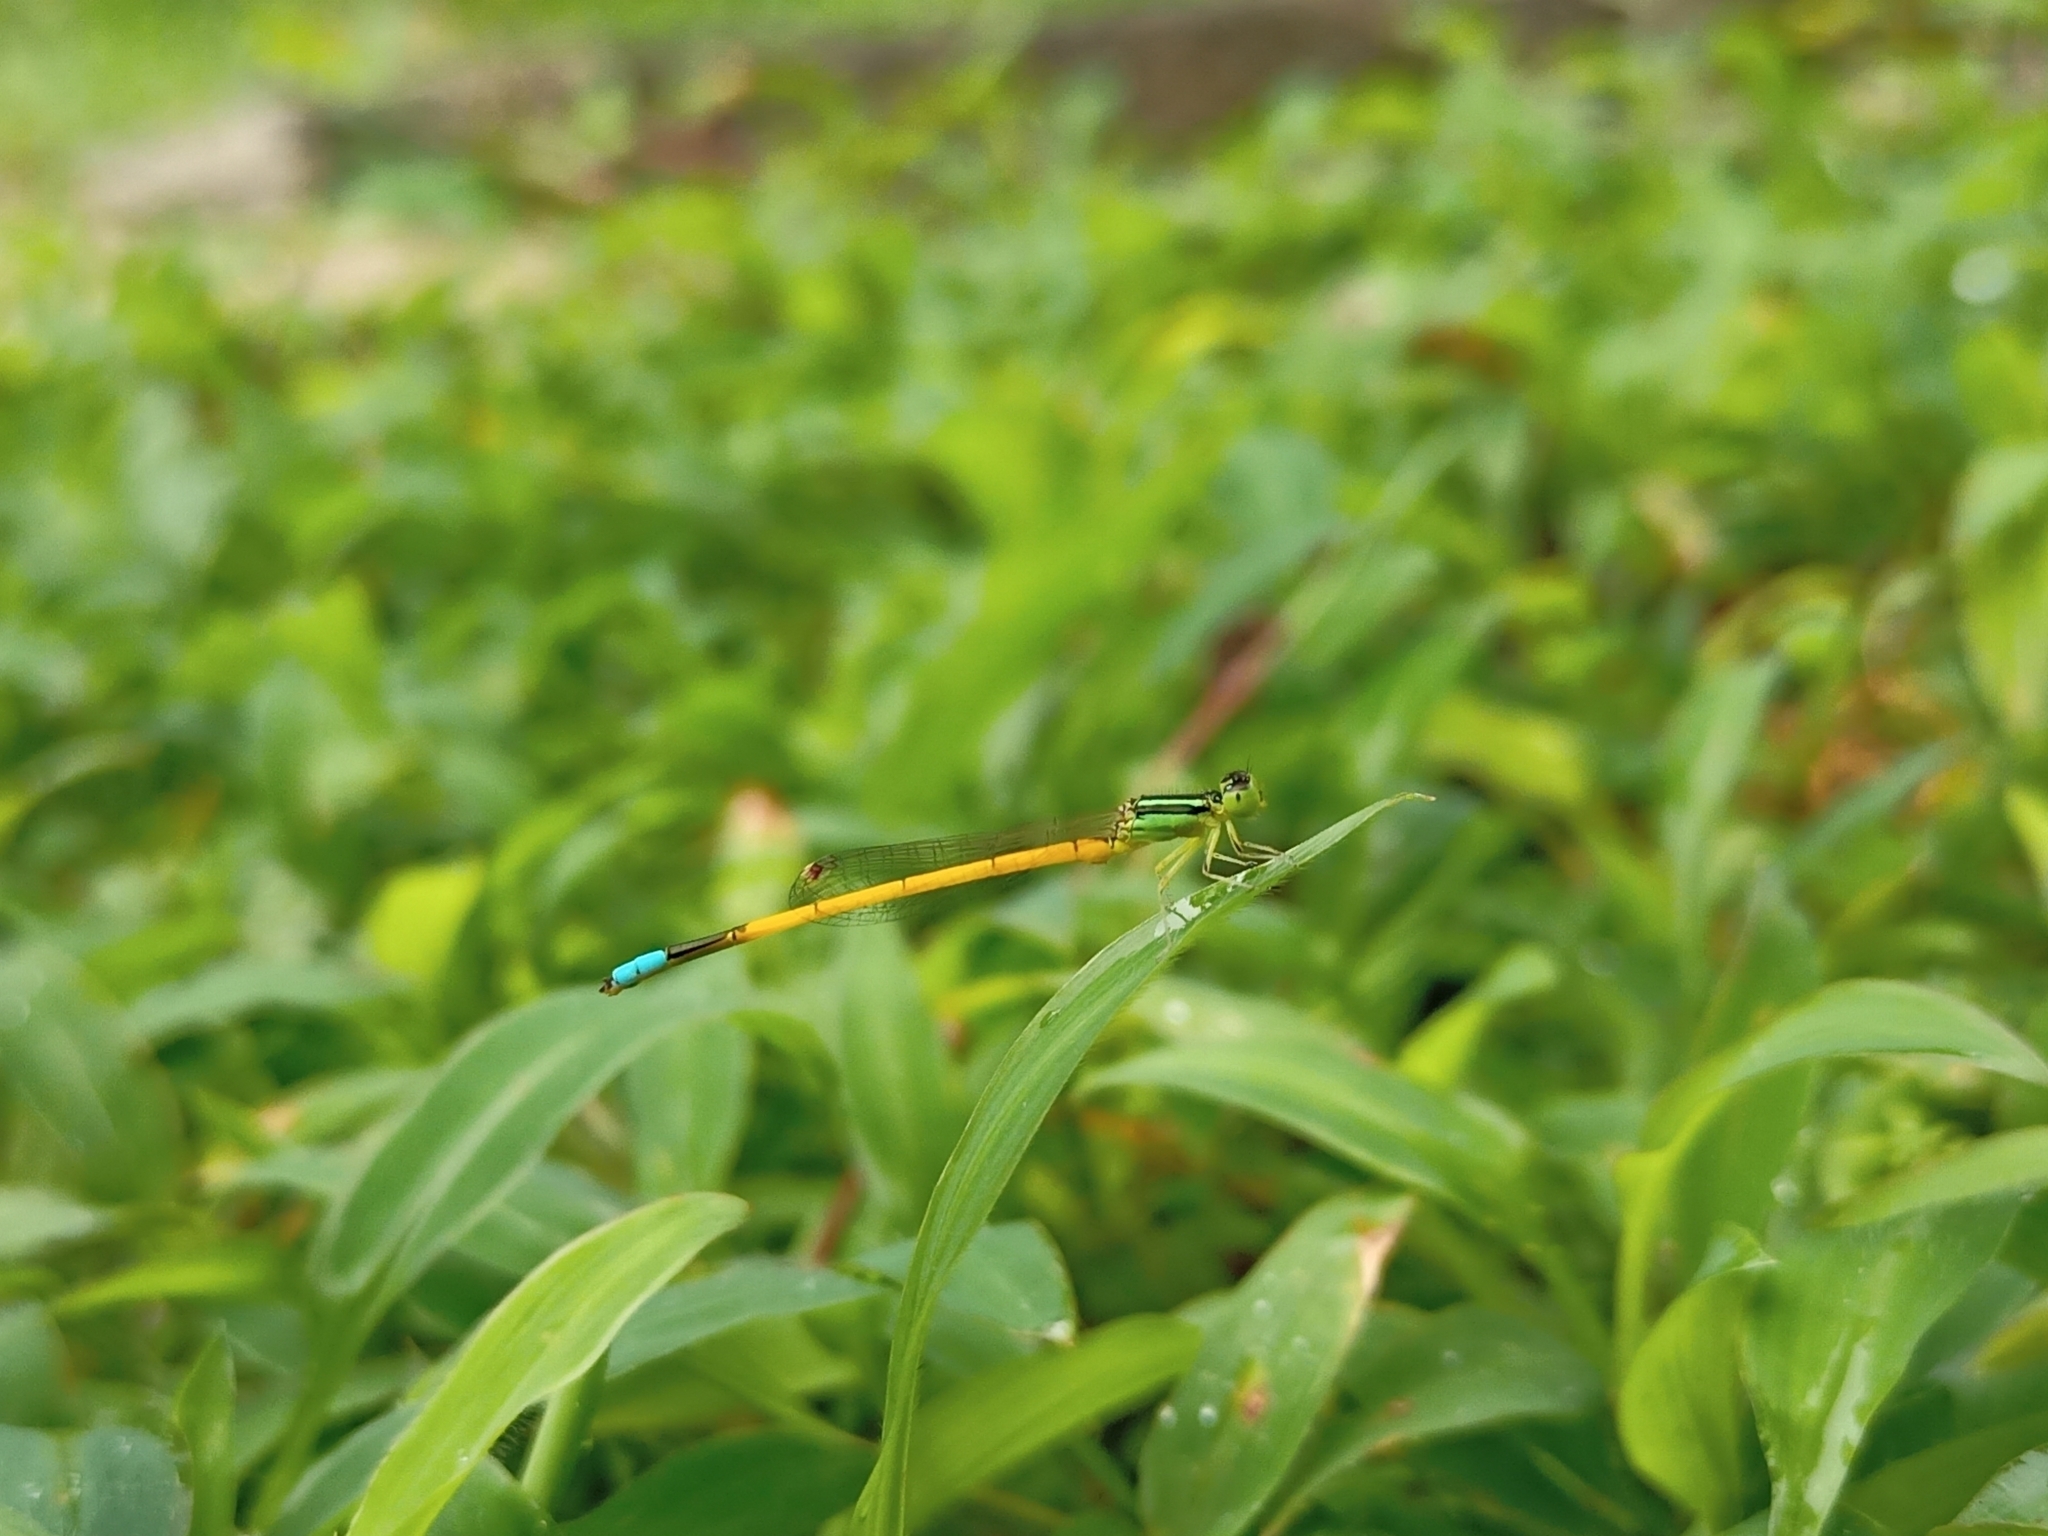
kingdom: Animalia
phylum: Arthropoda
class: Insecta
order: Odonata
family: Coenagrionidae
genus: Ischnura
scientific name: Ischnura rubilio
